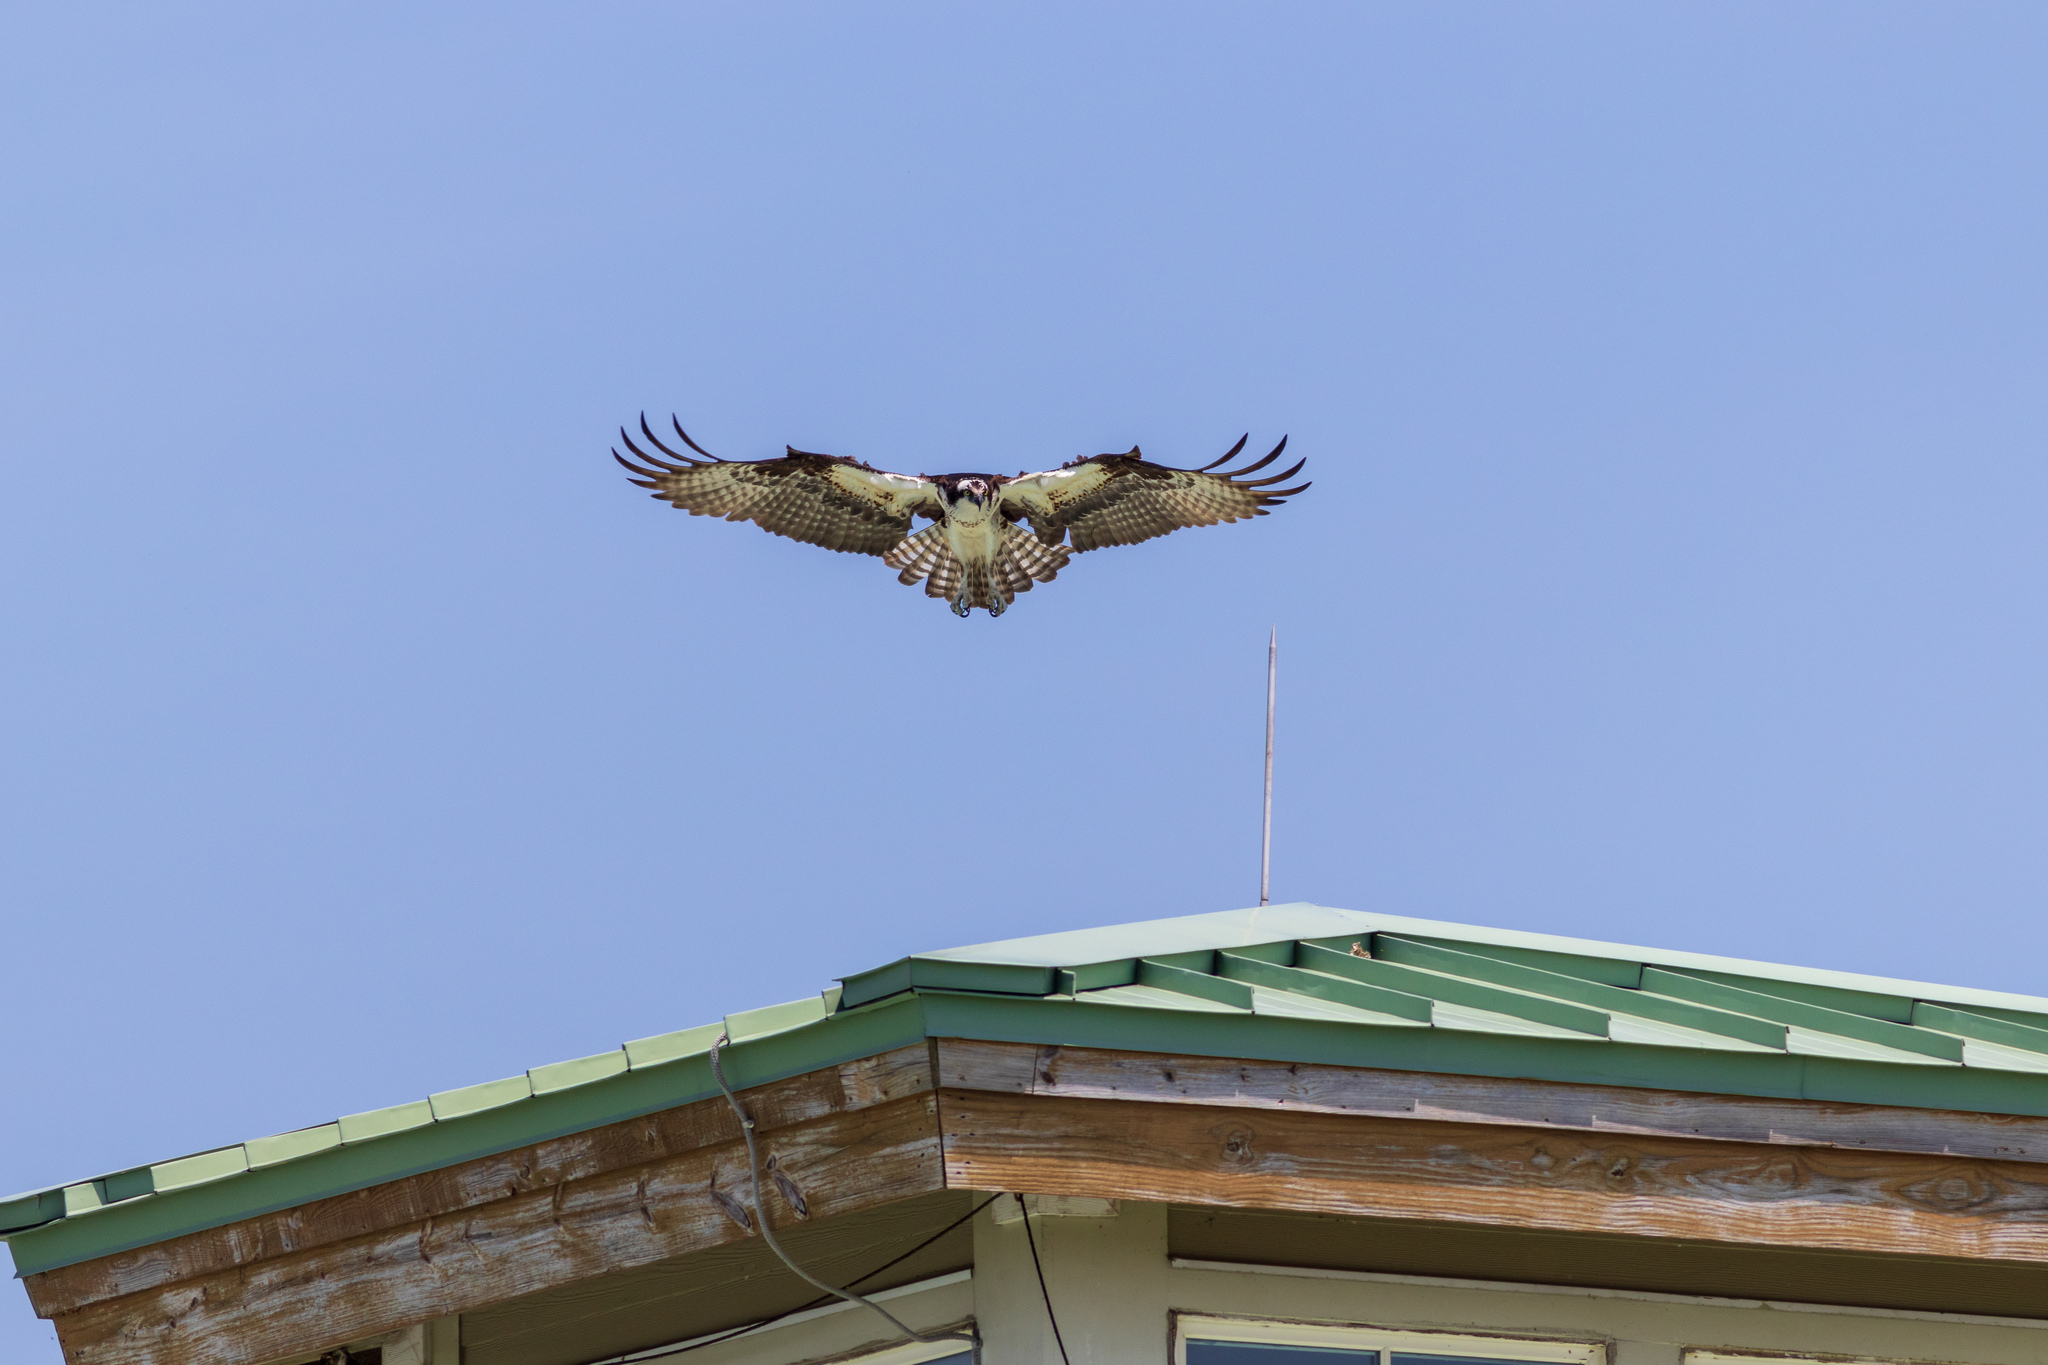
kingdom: Animalia
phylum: Chordata
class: Aves
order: Accipitriformes
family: Pandionidae
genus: Pandion
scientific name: Pandion haliaetus
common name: Osprey
